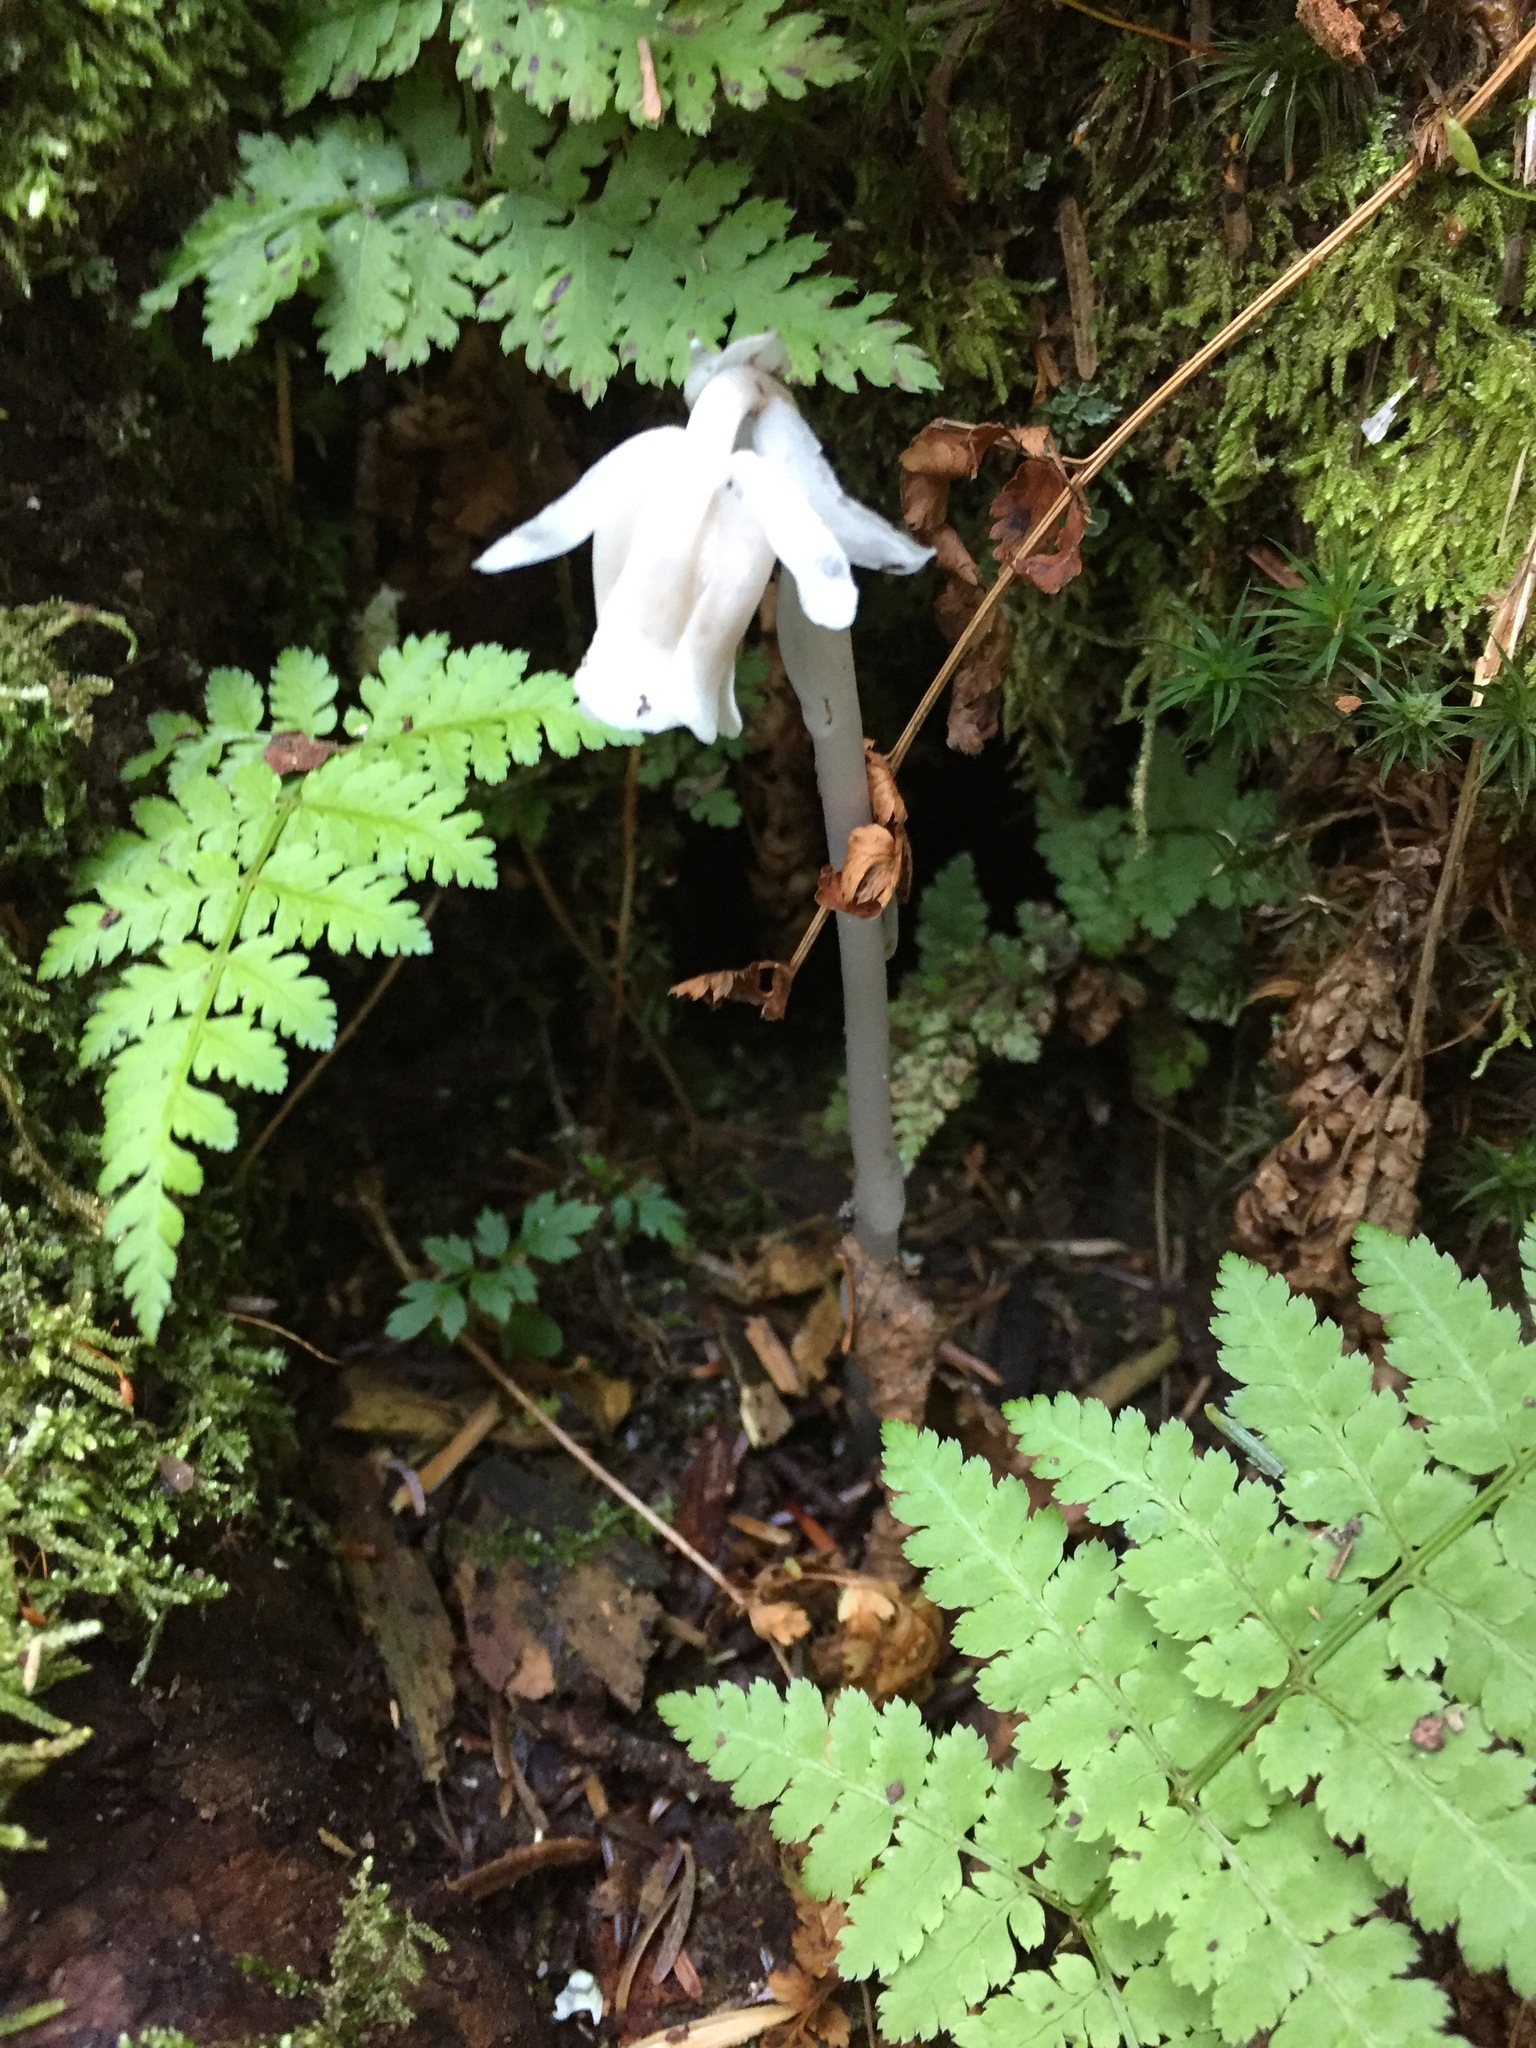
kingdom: Plantae
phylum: Tracheophyta
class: Magnoliopsida
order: Ericales
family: Ericaceae
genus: Monotropa
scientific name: Monotropa uniflora
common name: Convulsion root
